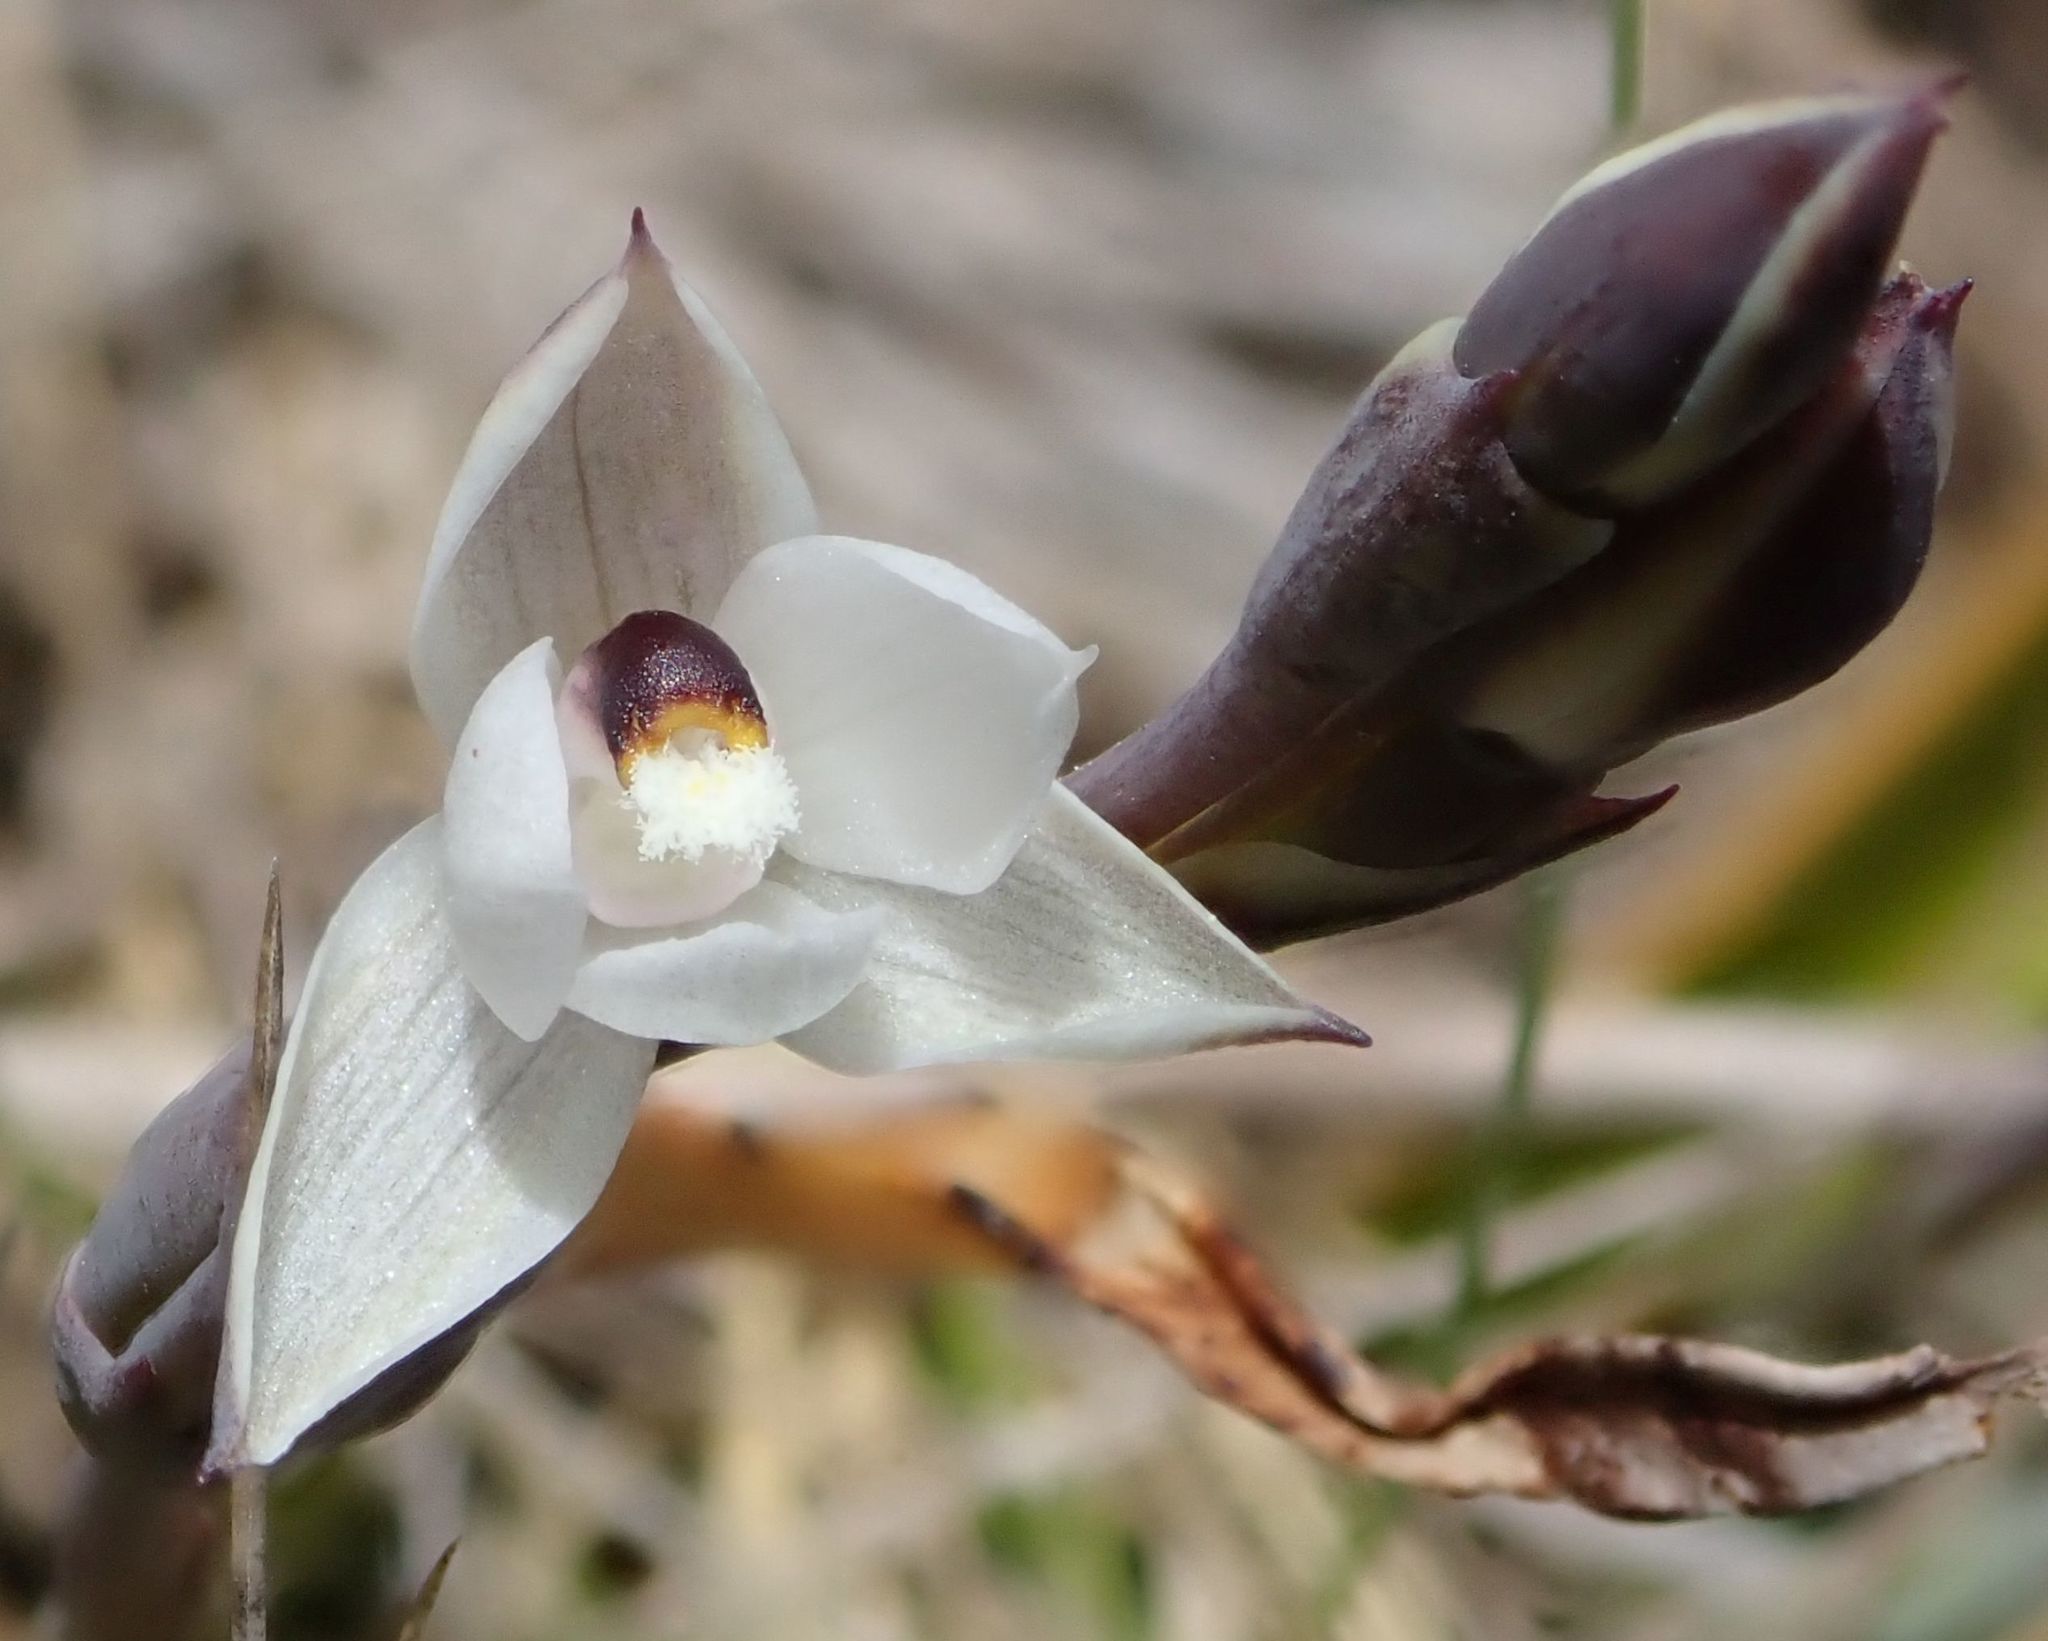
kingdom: Plantae
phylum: Tracheophyta
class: Liliopsida
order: Asparagales
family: Orchidaceae
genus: Thelymitra
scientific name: Thelymitra longifolia
